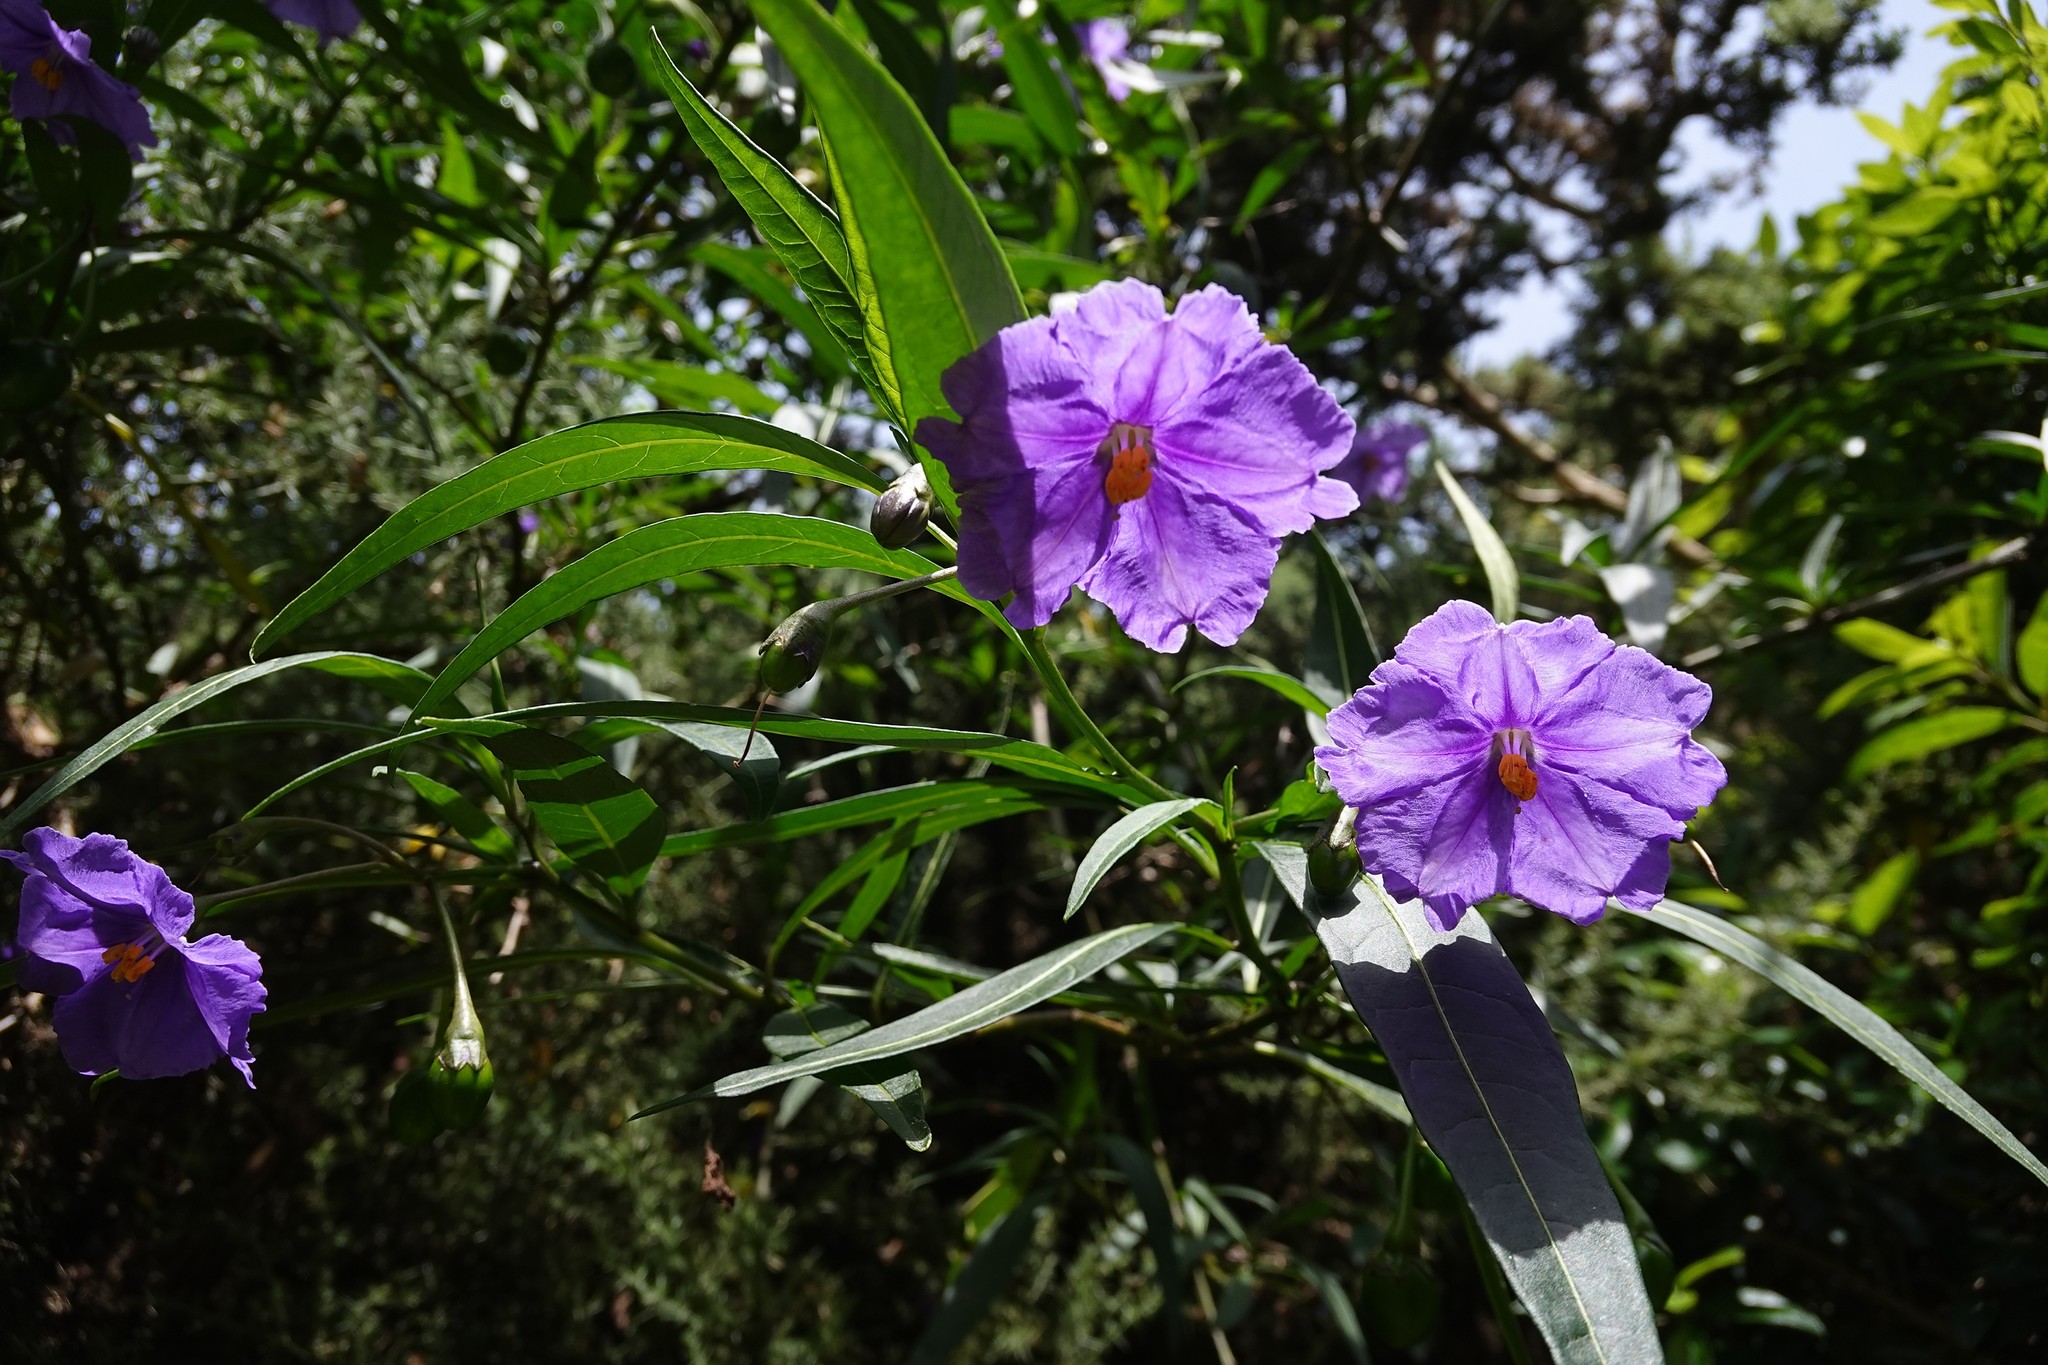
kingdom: Plantae
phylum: Tracheophyta
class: Magnoliopsida
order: Solanales
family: Solanaceae
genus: Solanum
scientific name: Solanum laciniatum
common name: Kangaroo-apple
